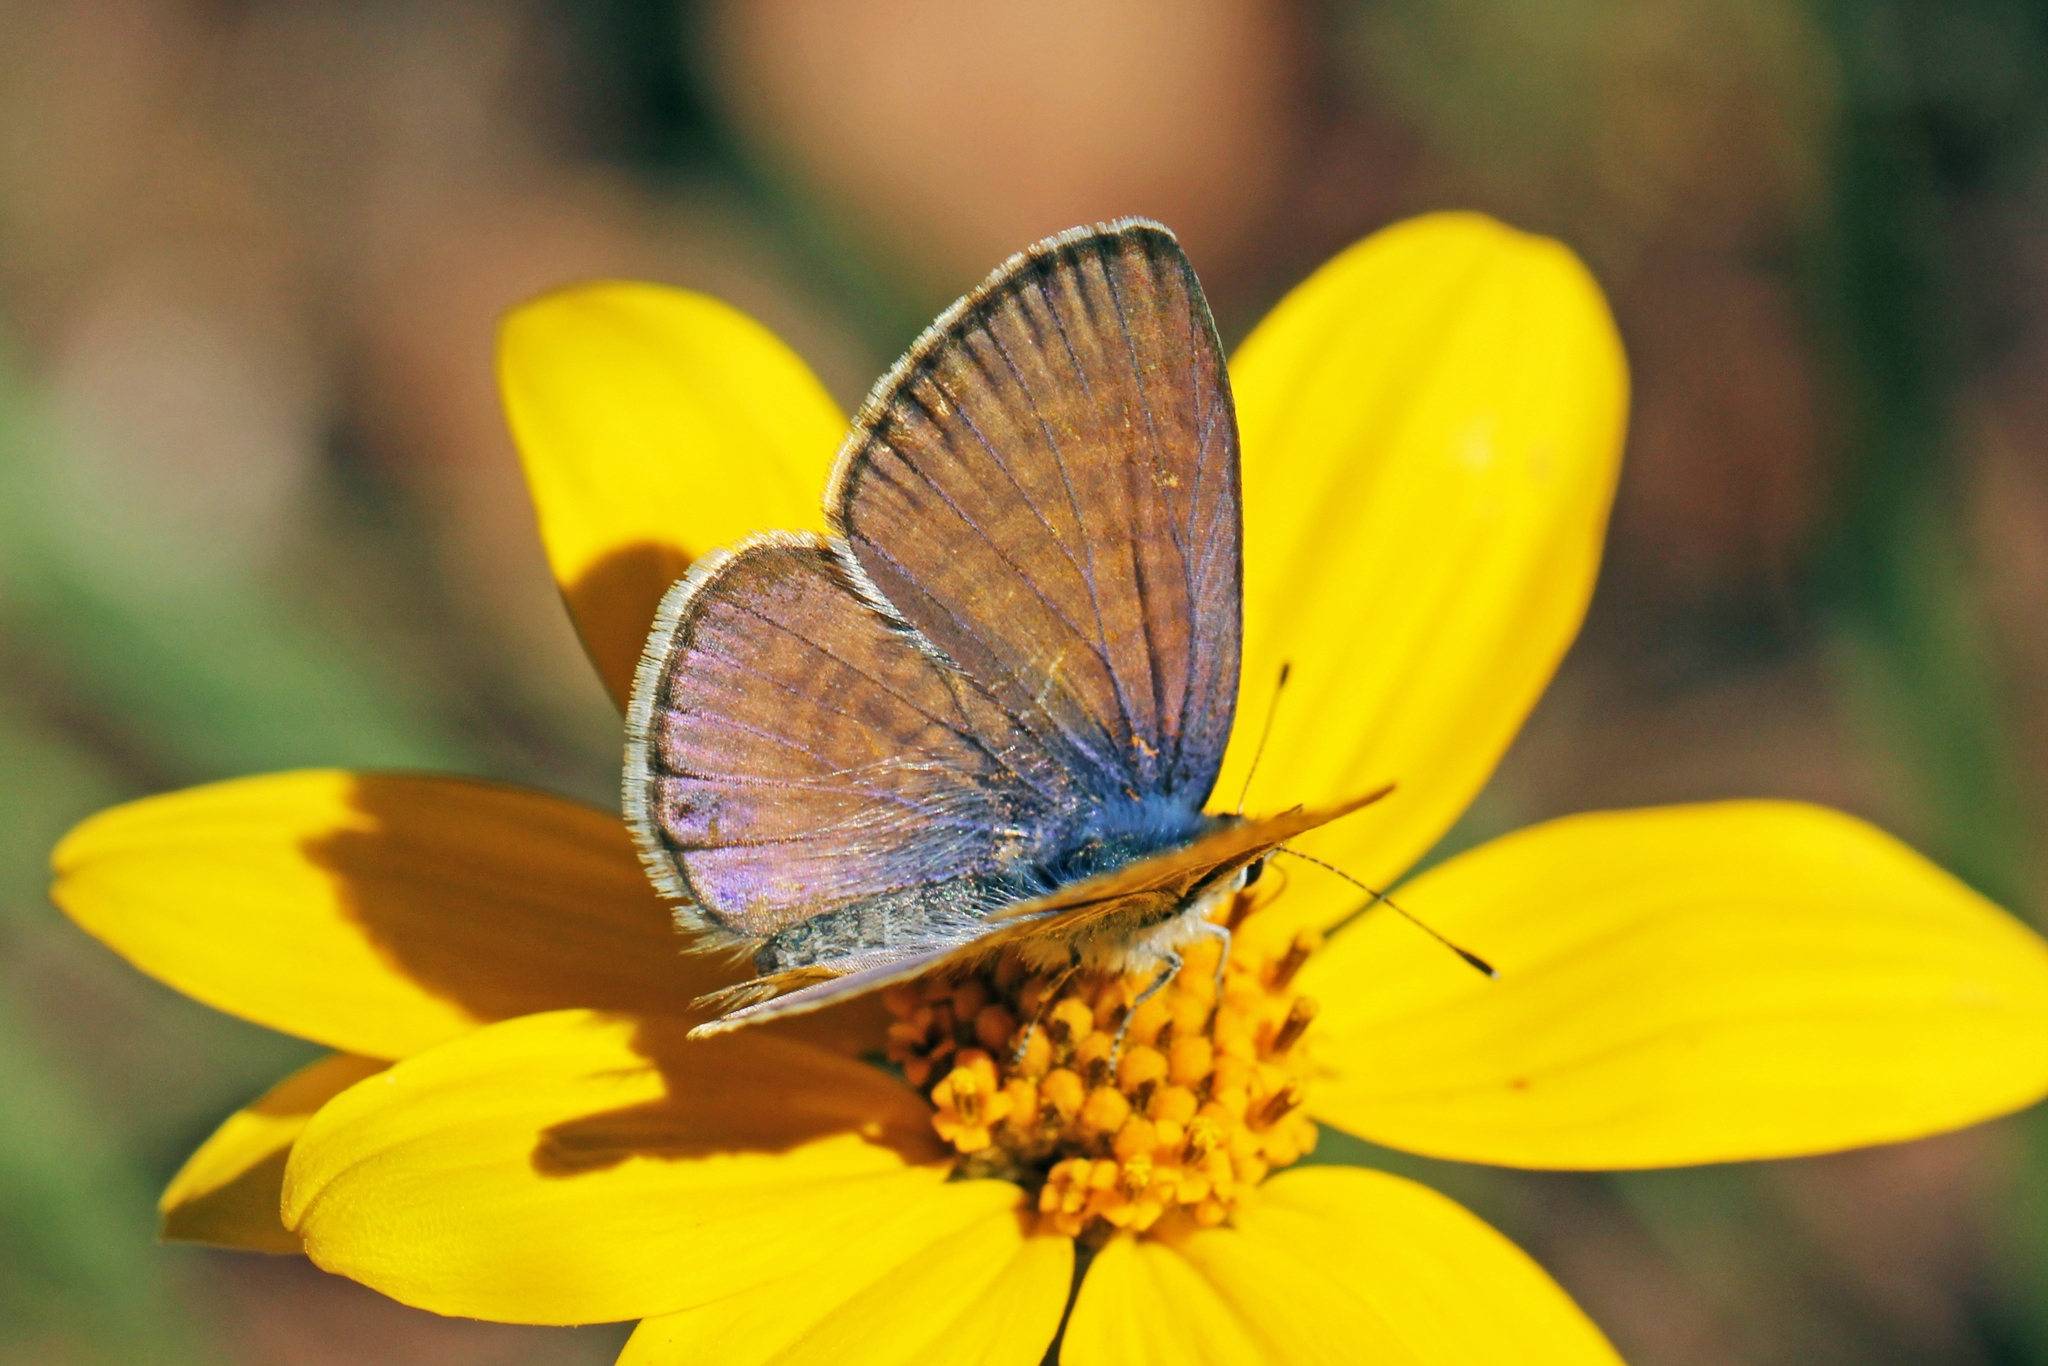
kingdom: Animalia
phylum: Arthropoda
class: Insecta
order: Lepidoptera
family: Lycaenidae
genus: Leptotes
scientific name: Leptotes marina
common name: Marine blue
